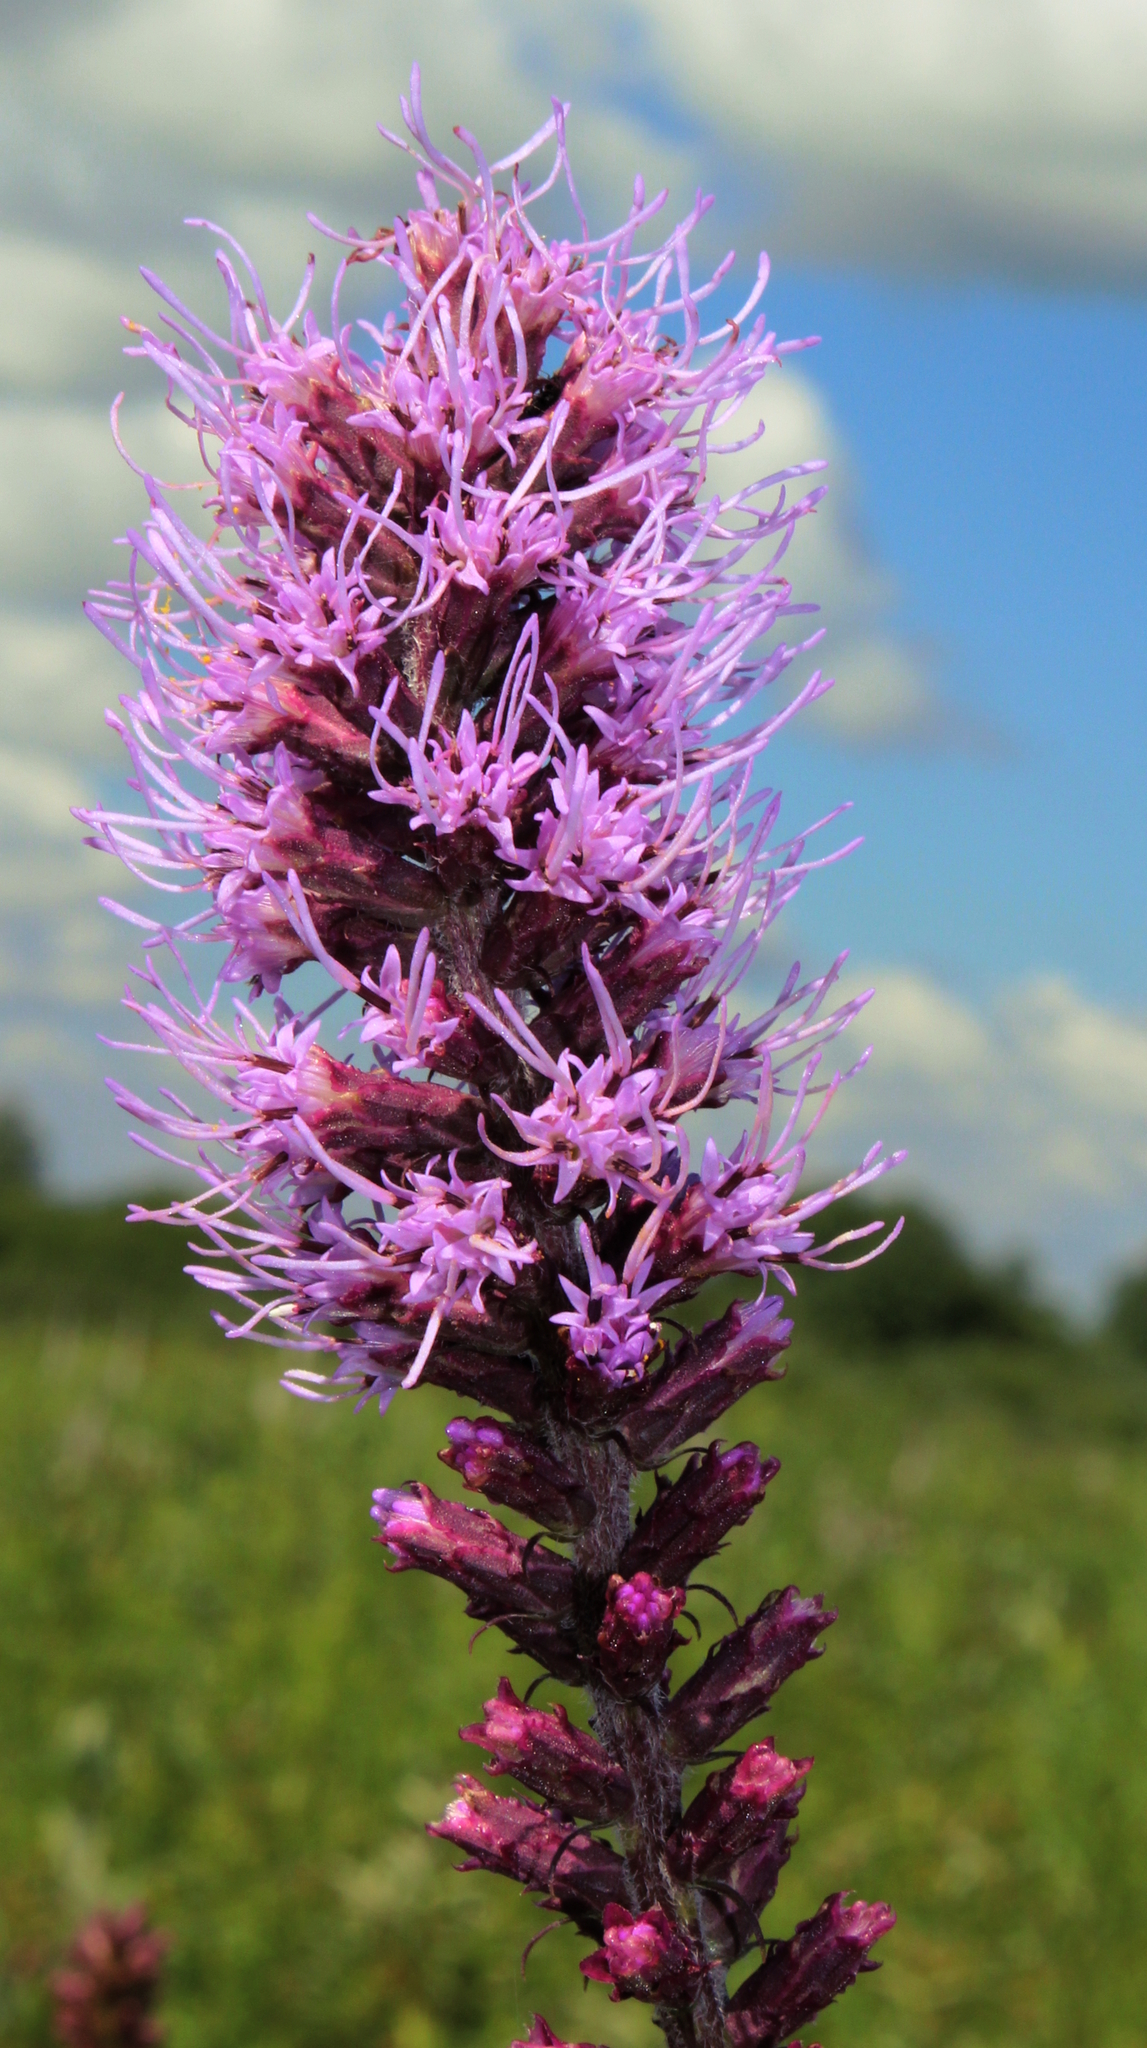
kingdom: Plantae
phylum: Tracheophyta
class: Magnoliopsida
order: Asterales
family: Asteraceae
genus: Liatris
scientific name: Liatris pycnostachya
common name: Cattail gayfeather
